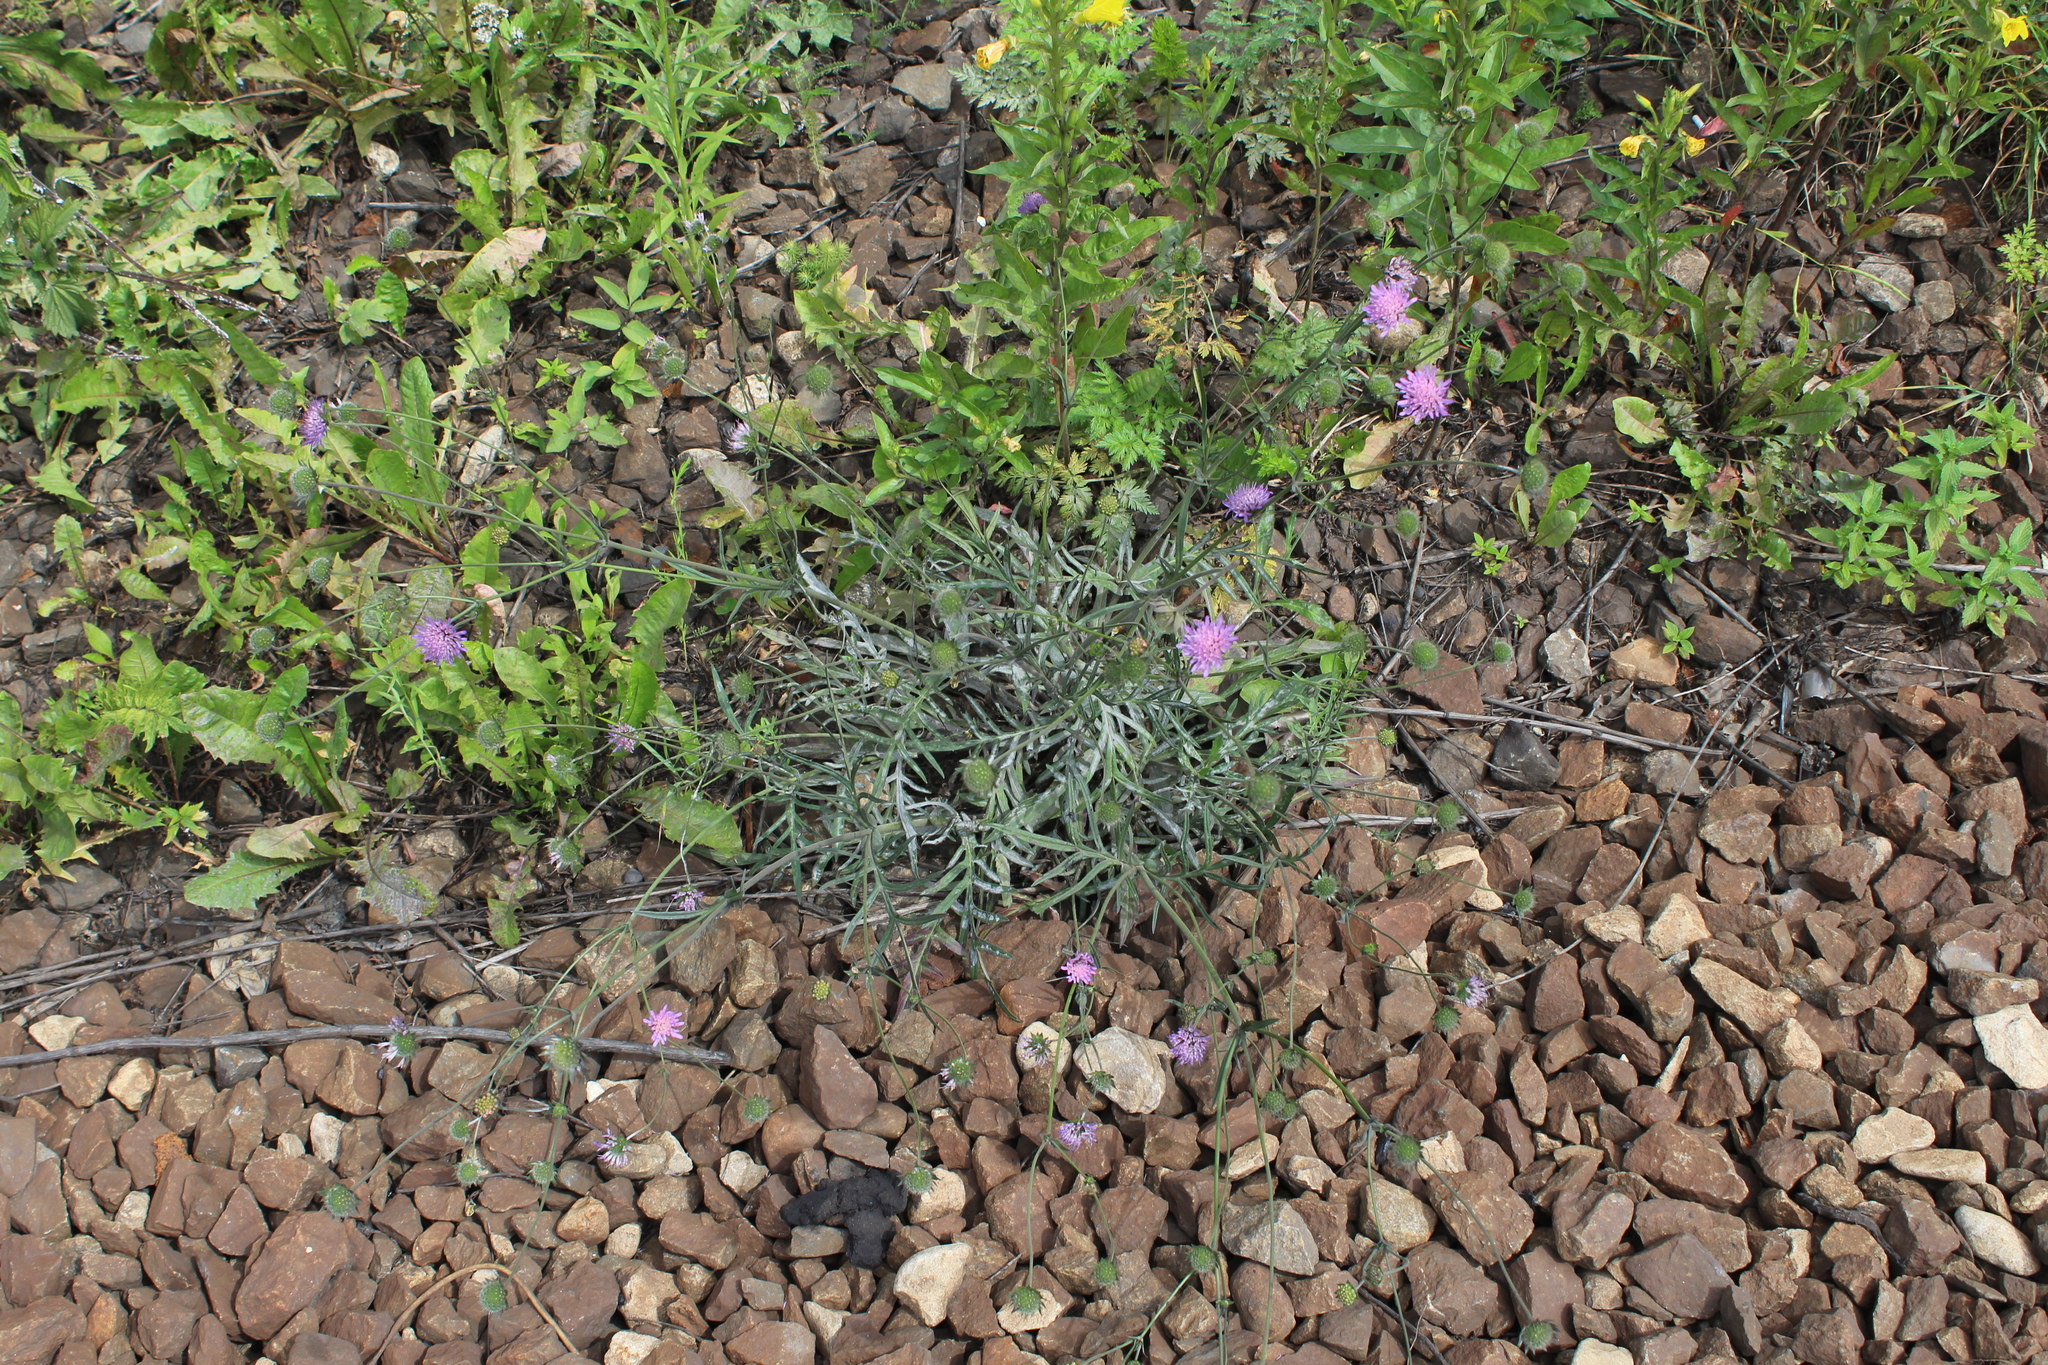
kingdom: Plantae
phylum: Tracheophyta
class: Magnoliopsida
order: Dipsacales
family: Caprifoliaceae
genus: Knautia
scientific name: Knautia arvensis
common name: Field scabiosa
